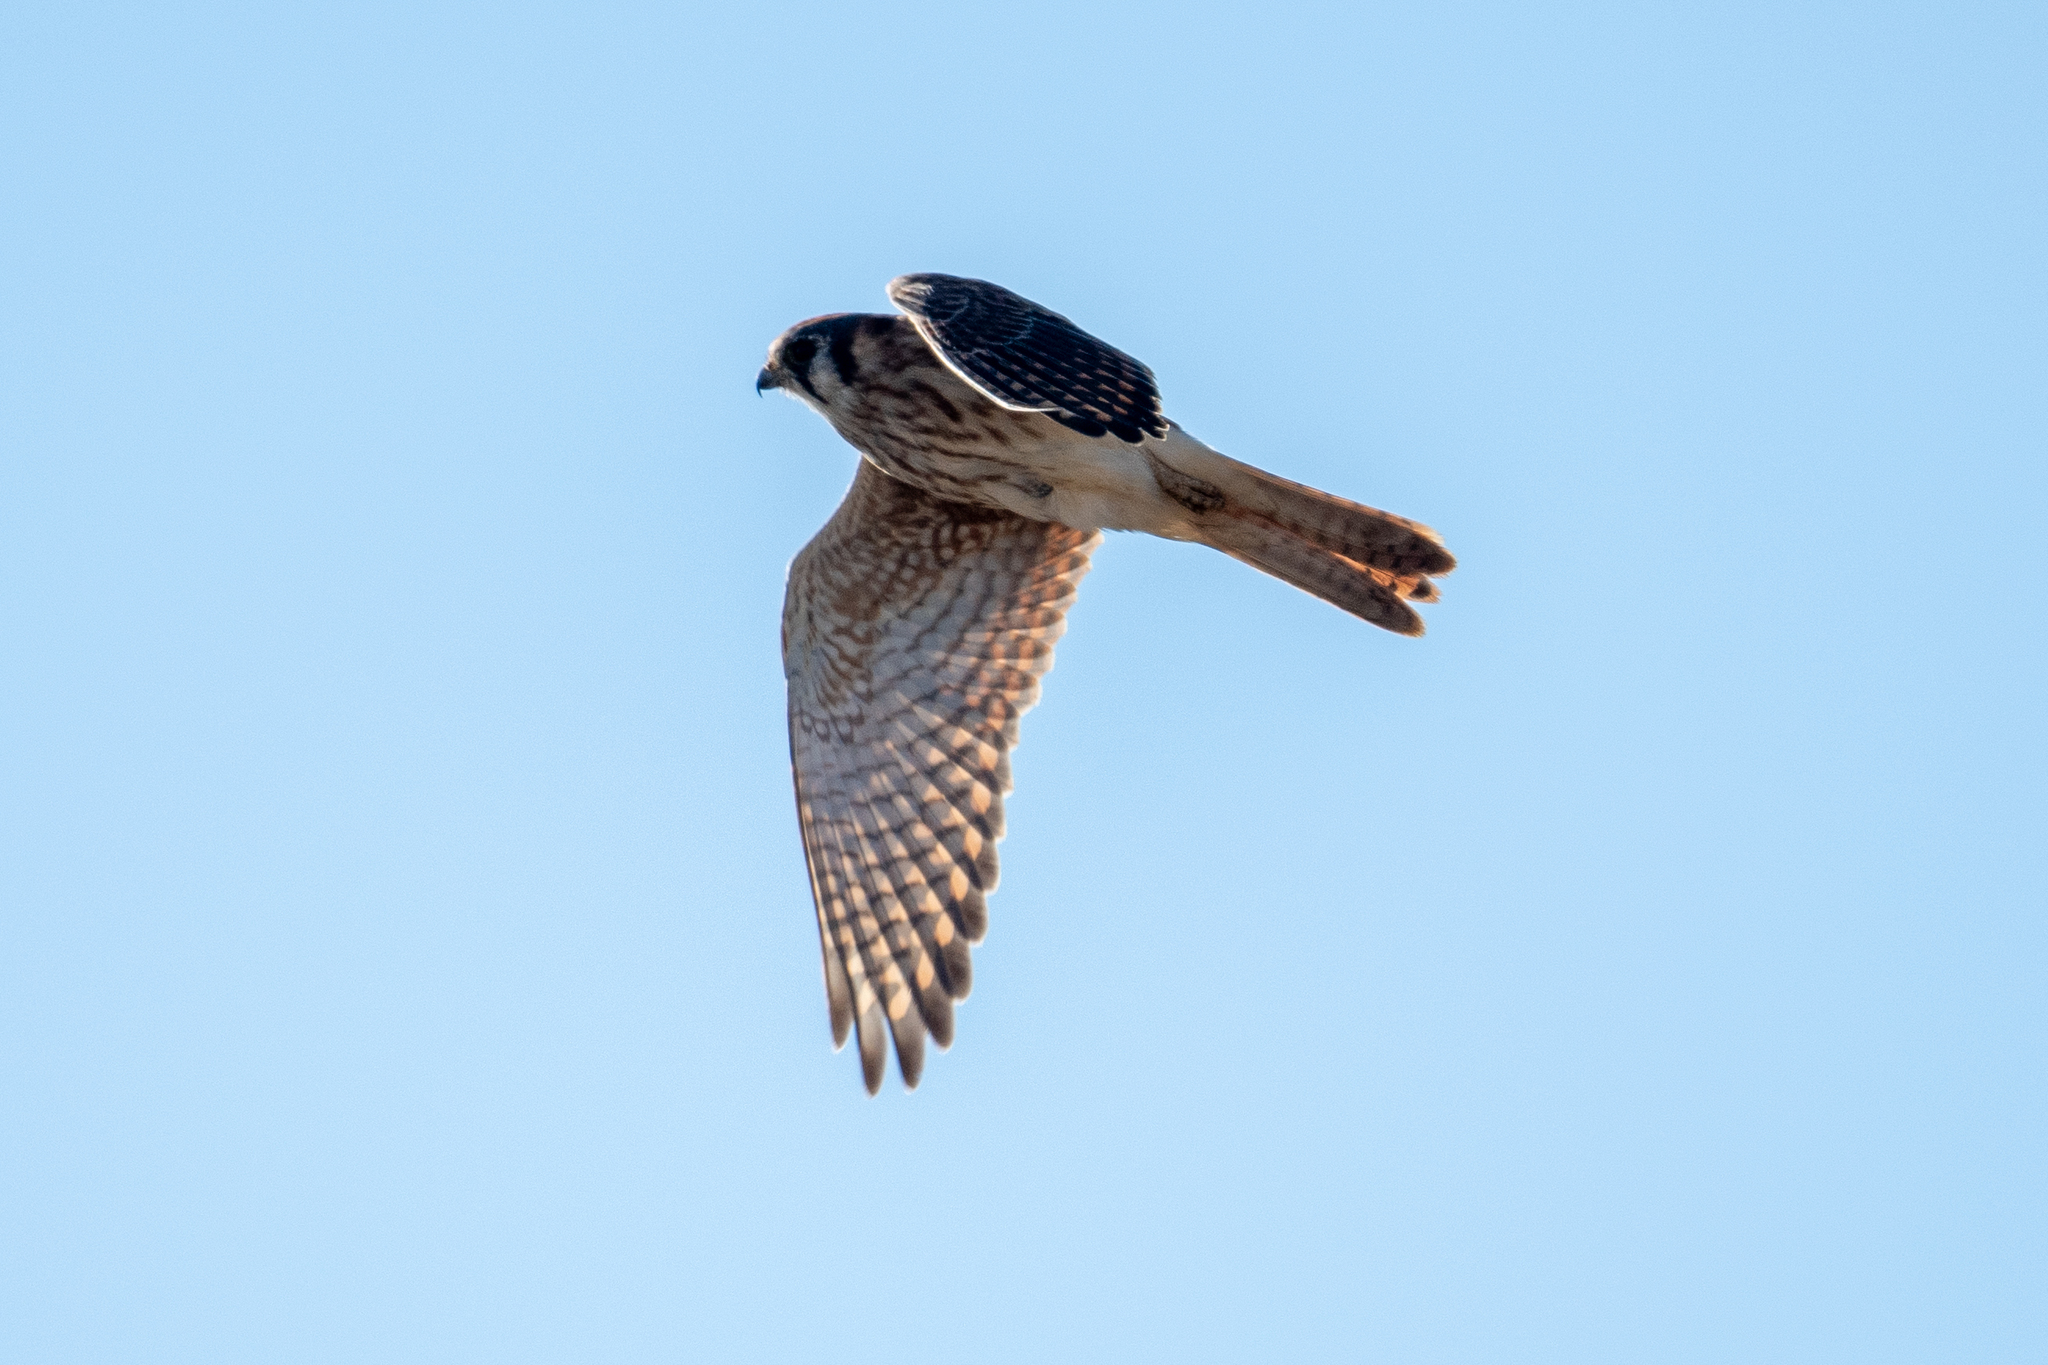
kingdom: Animalia
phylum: Chordata
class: Aves
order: Falconiformes
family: Falconidae
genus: Falco
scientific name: Falco sparverius
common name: American kestrel
